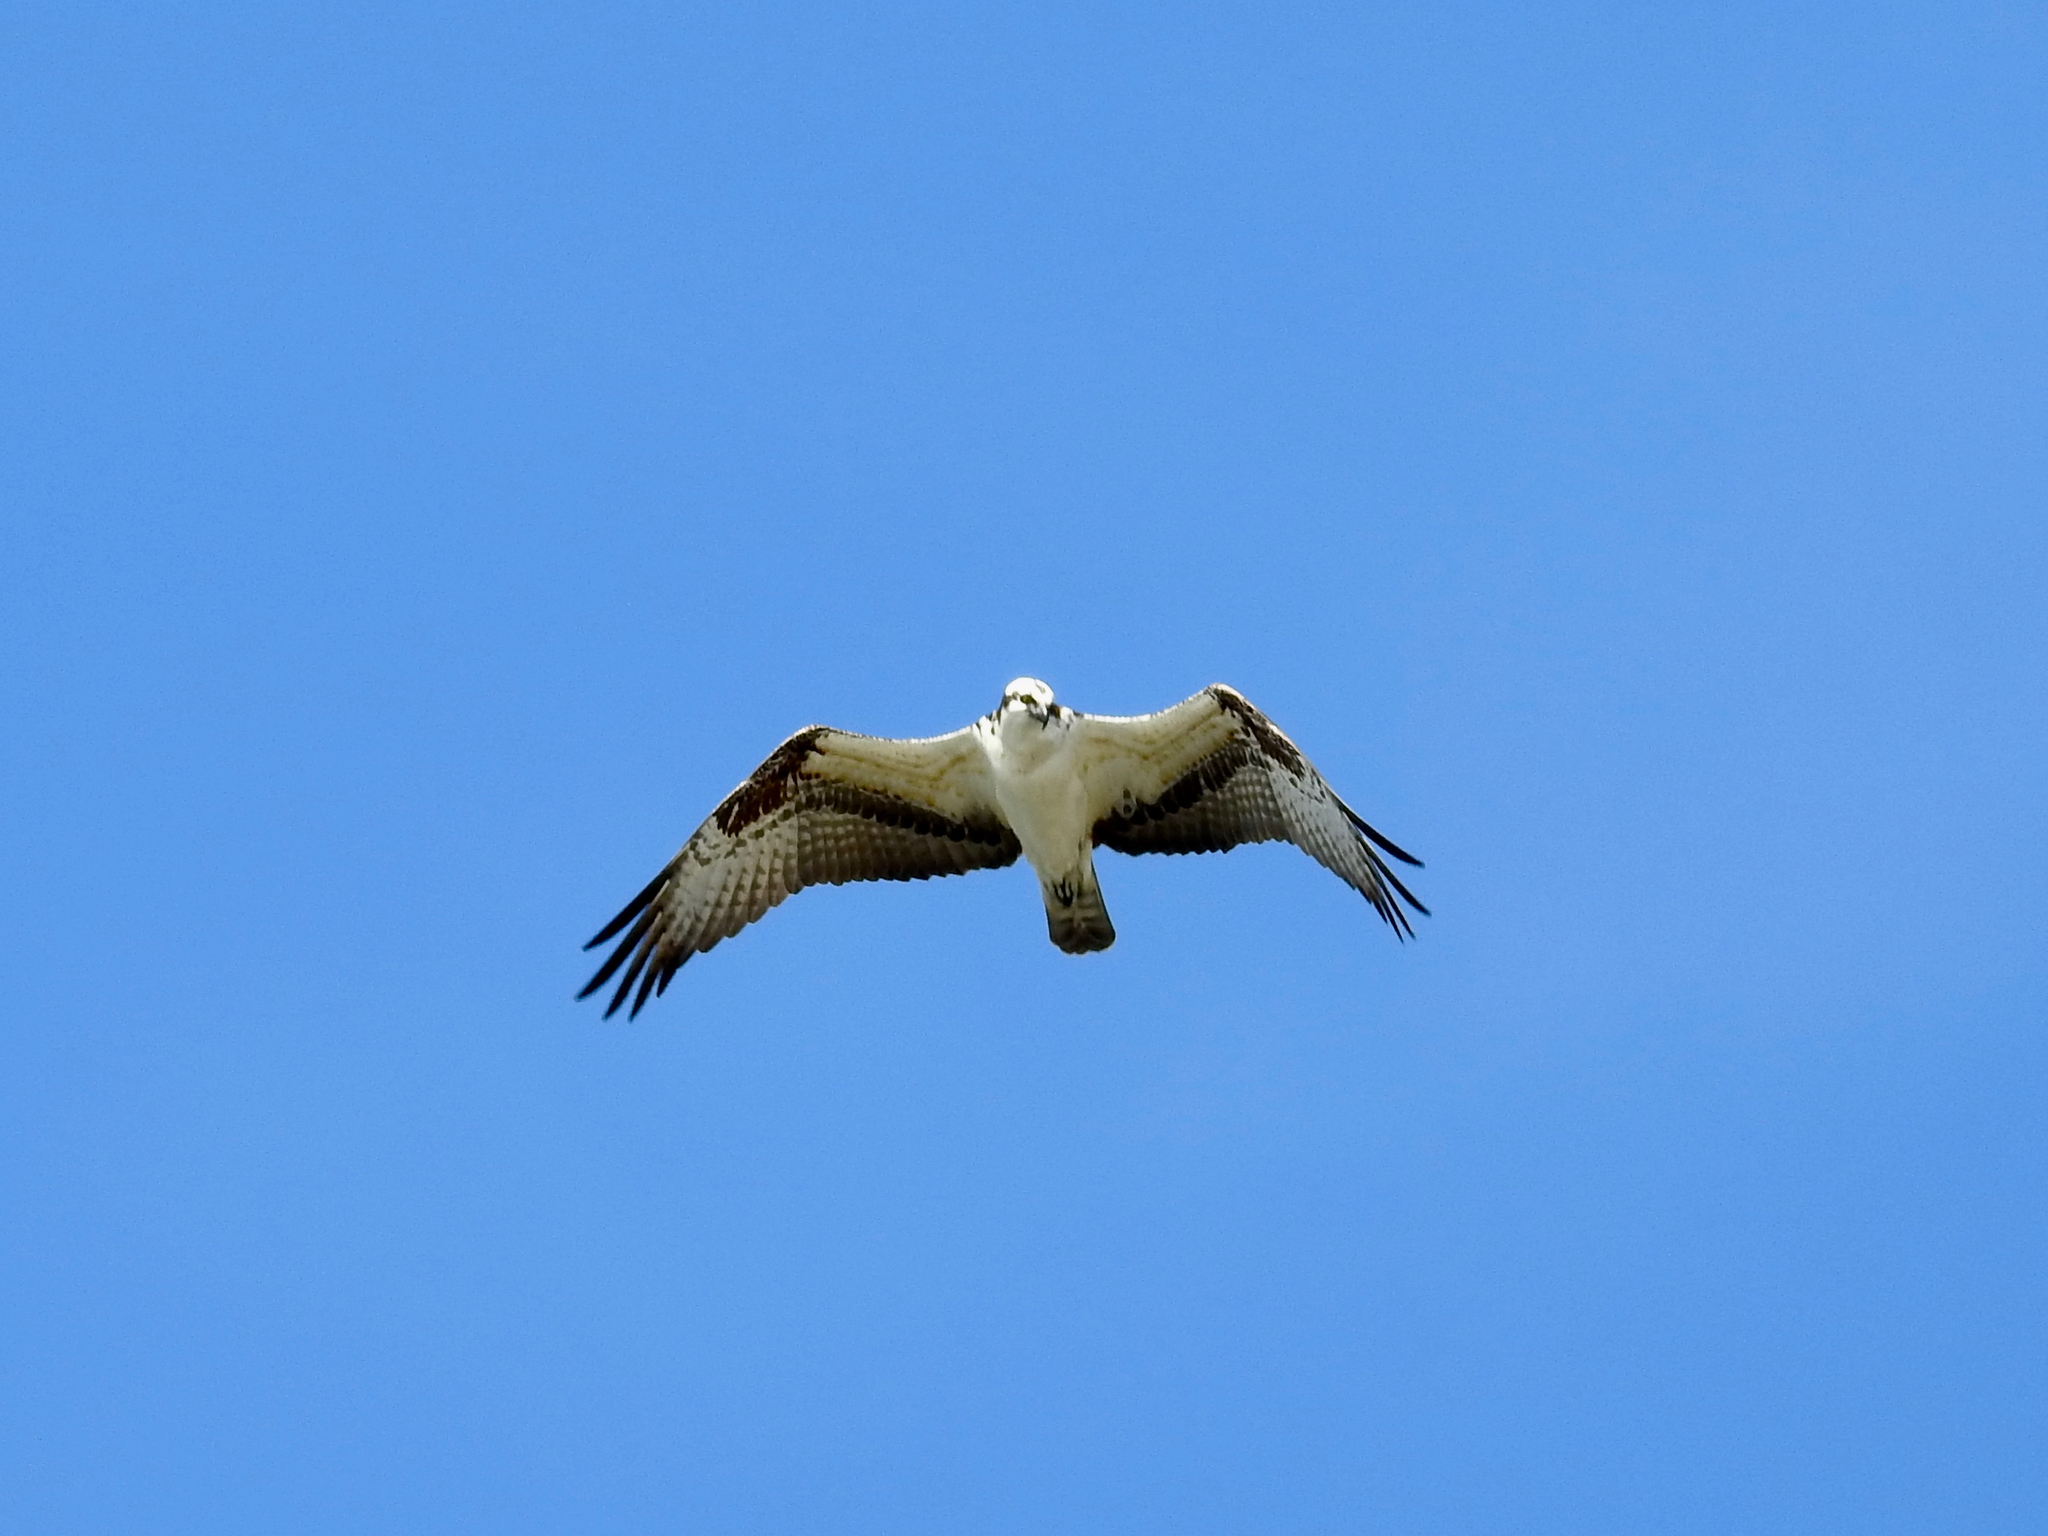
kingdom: Animalia
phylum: Chordata
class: Aves
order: Accipitriformes
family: Pandionidae
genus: Pandion
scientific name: Pandion haliaetus
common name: Osprey
